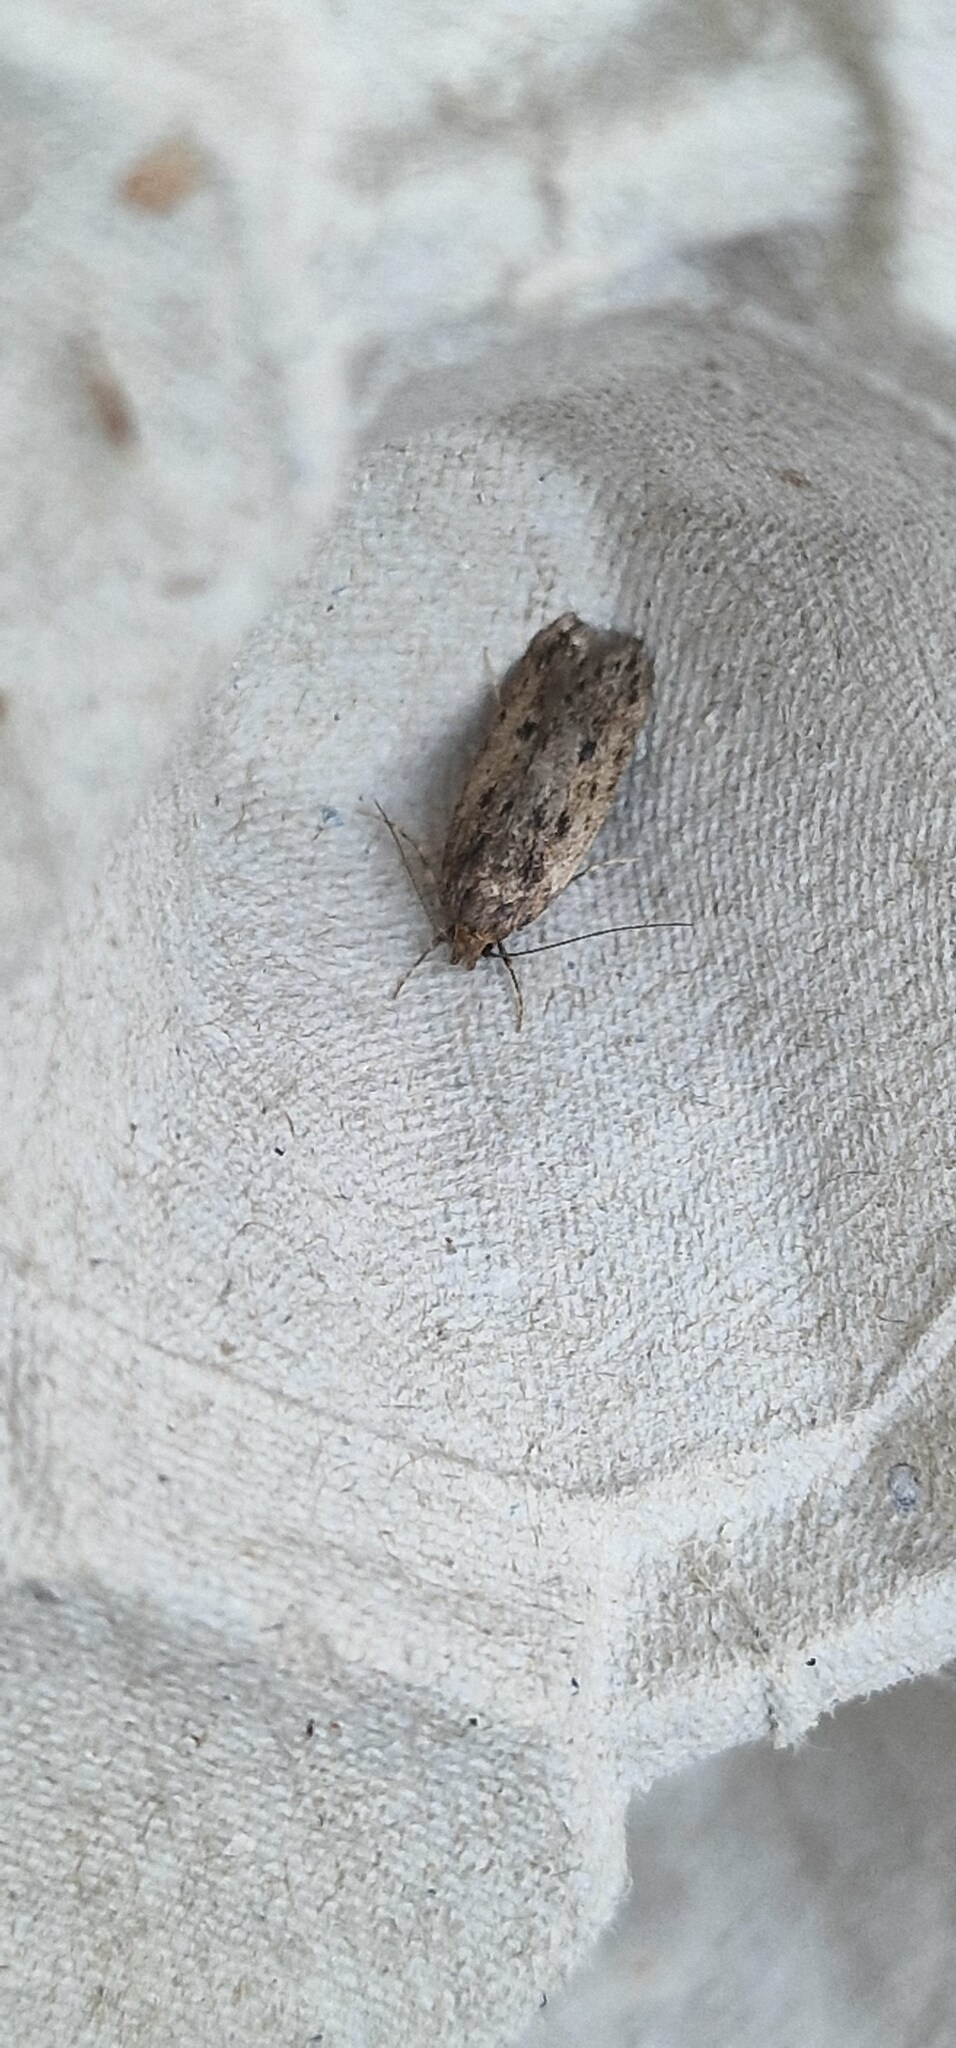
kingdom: Animalia
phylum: Arthropoda
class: Insecta
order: Lepidoptera
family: Oecophoridae
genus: Hofmannophila
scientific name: Hofmannophila pseudospretella
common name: Brown house moth
